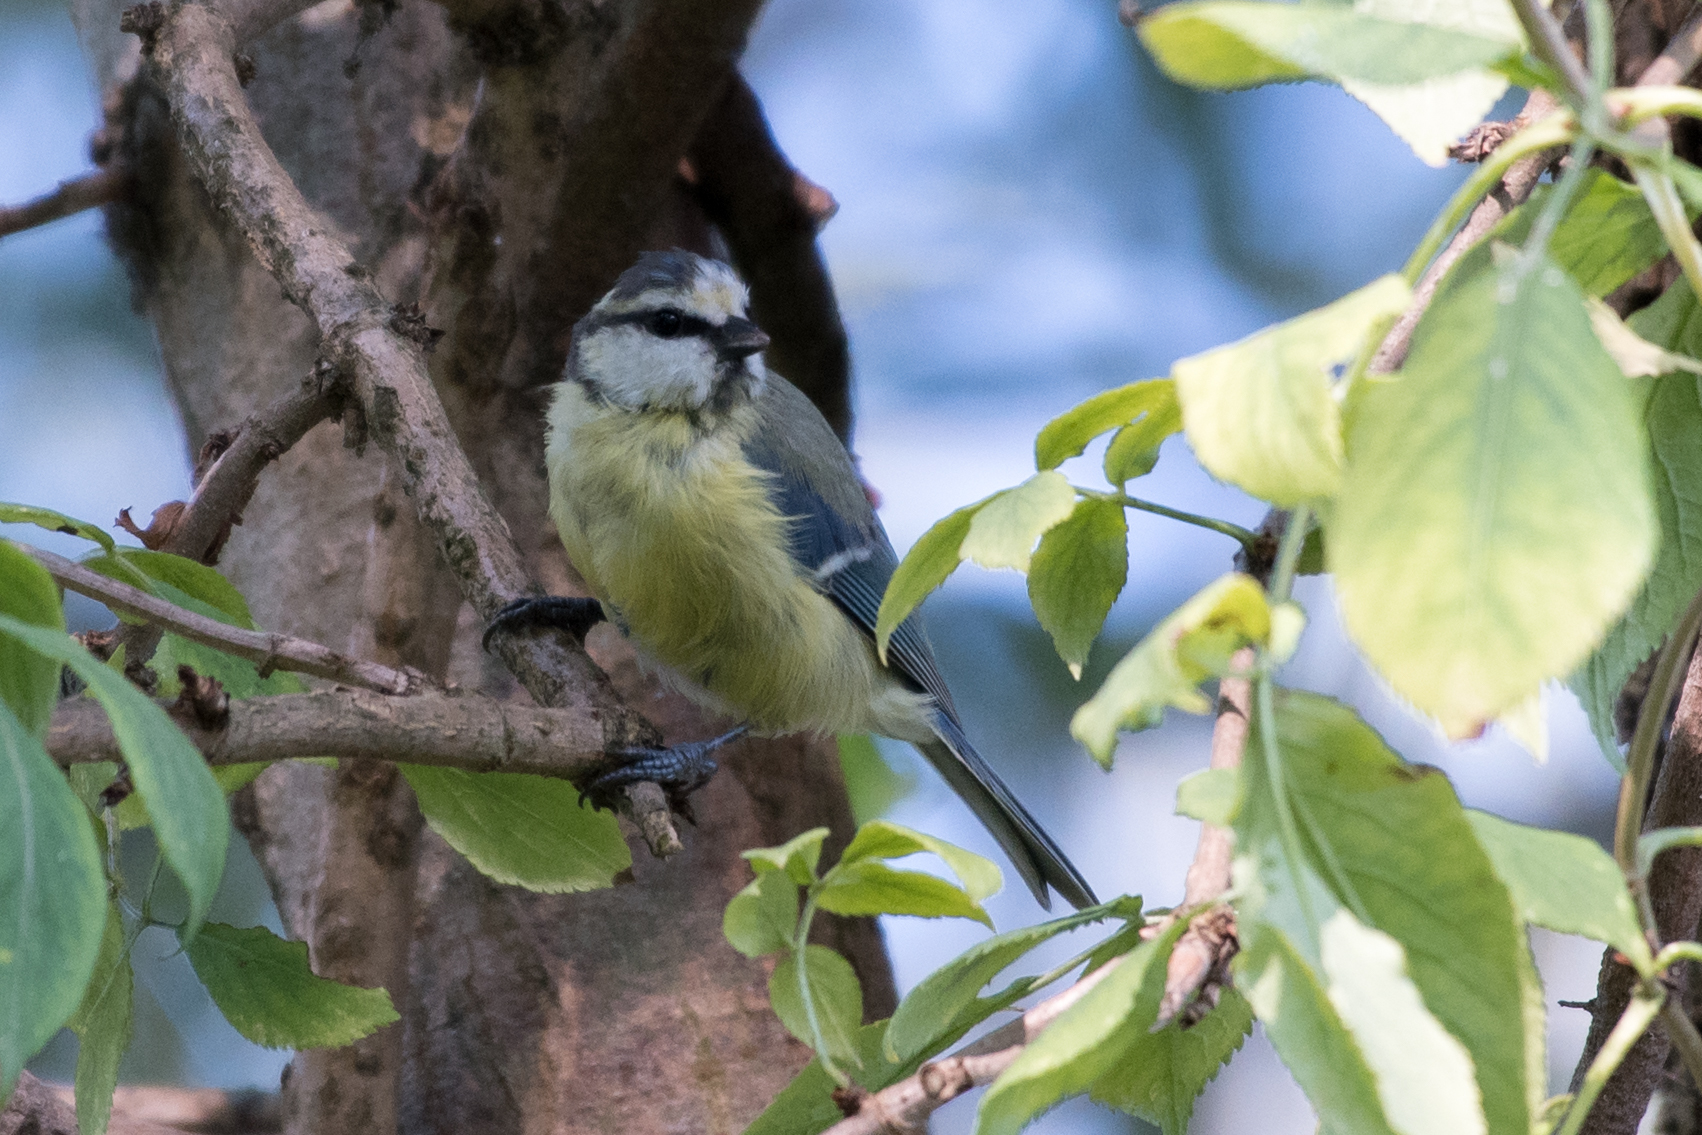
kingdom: Animalia
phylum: Chordata
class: Aves
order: Passeriformes
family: Paridae
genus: Cyanistes
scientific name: Cyanistes caeruleus
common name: Eurasian blue tit
